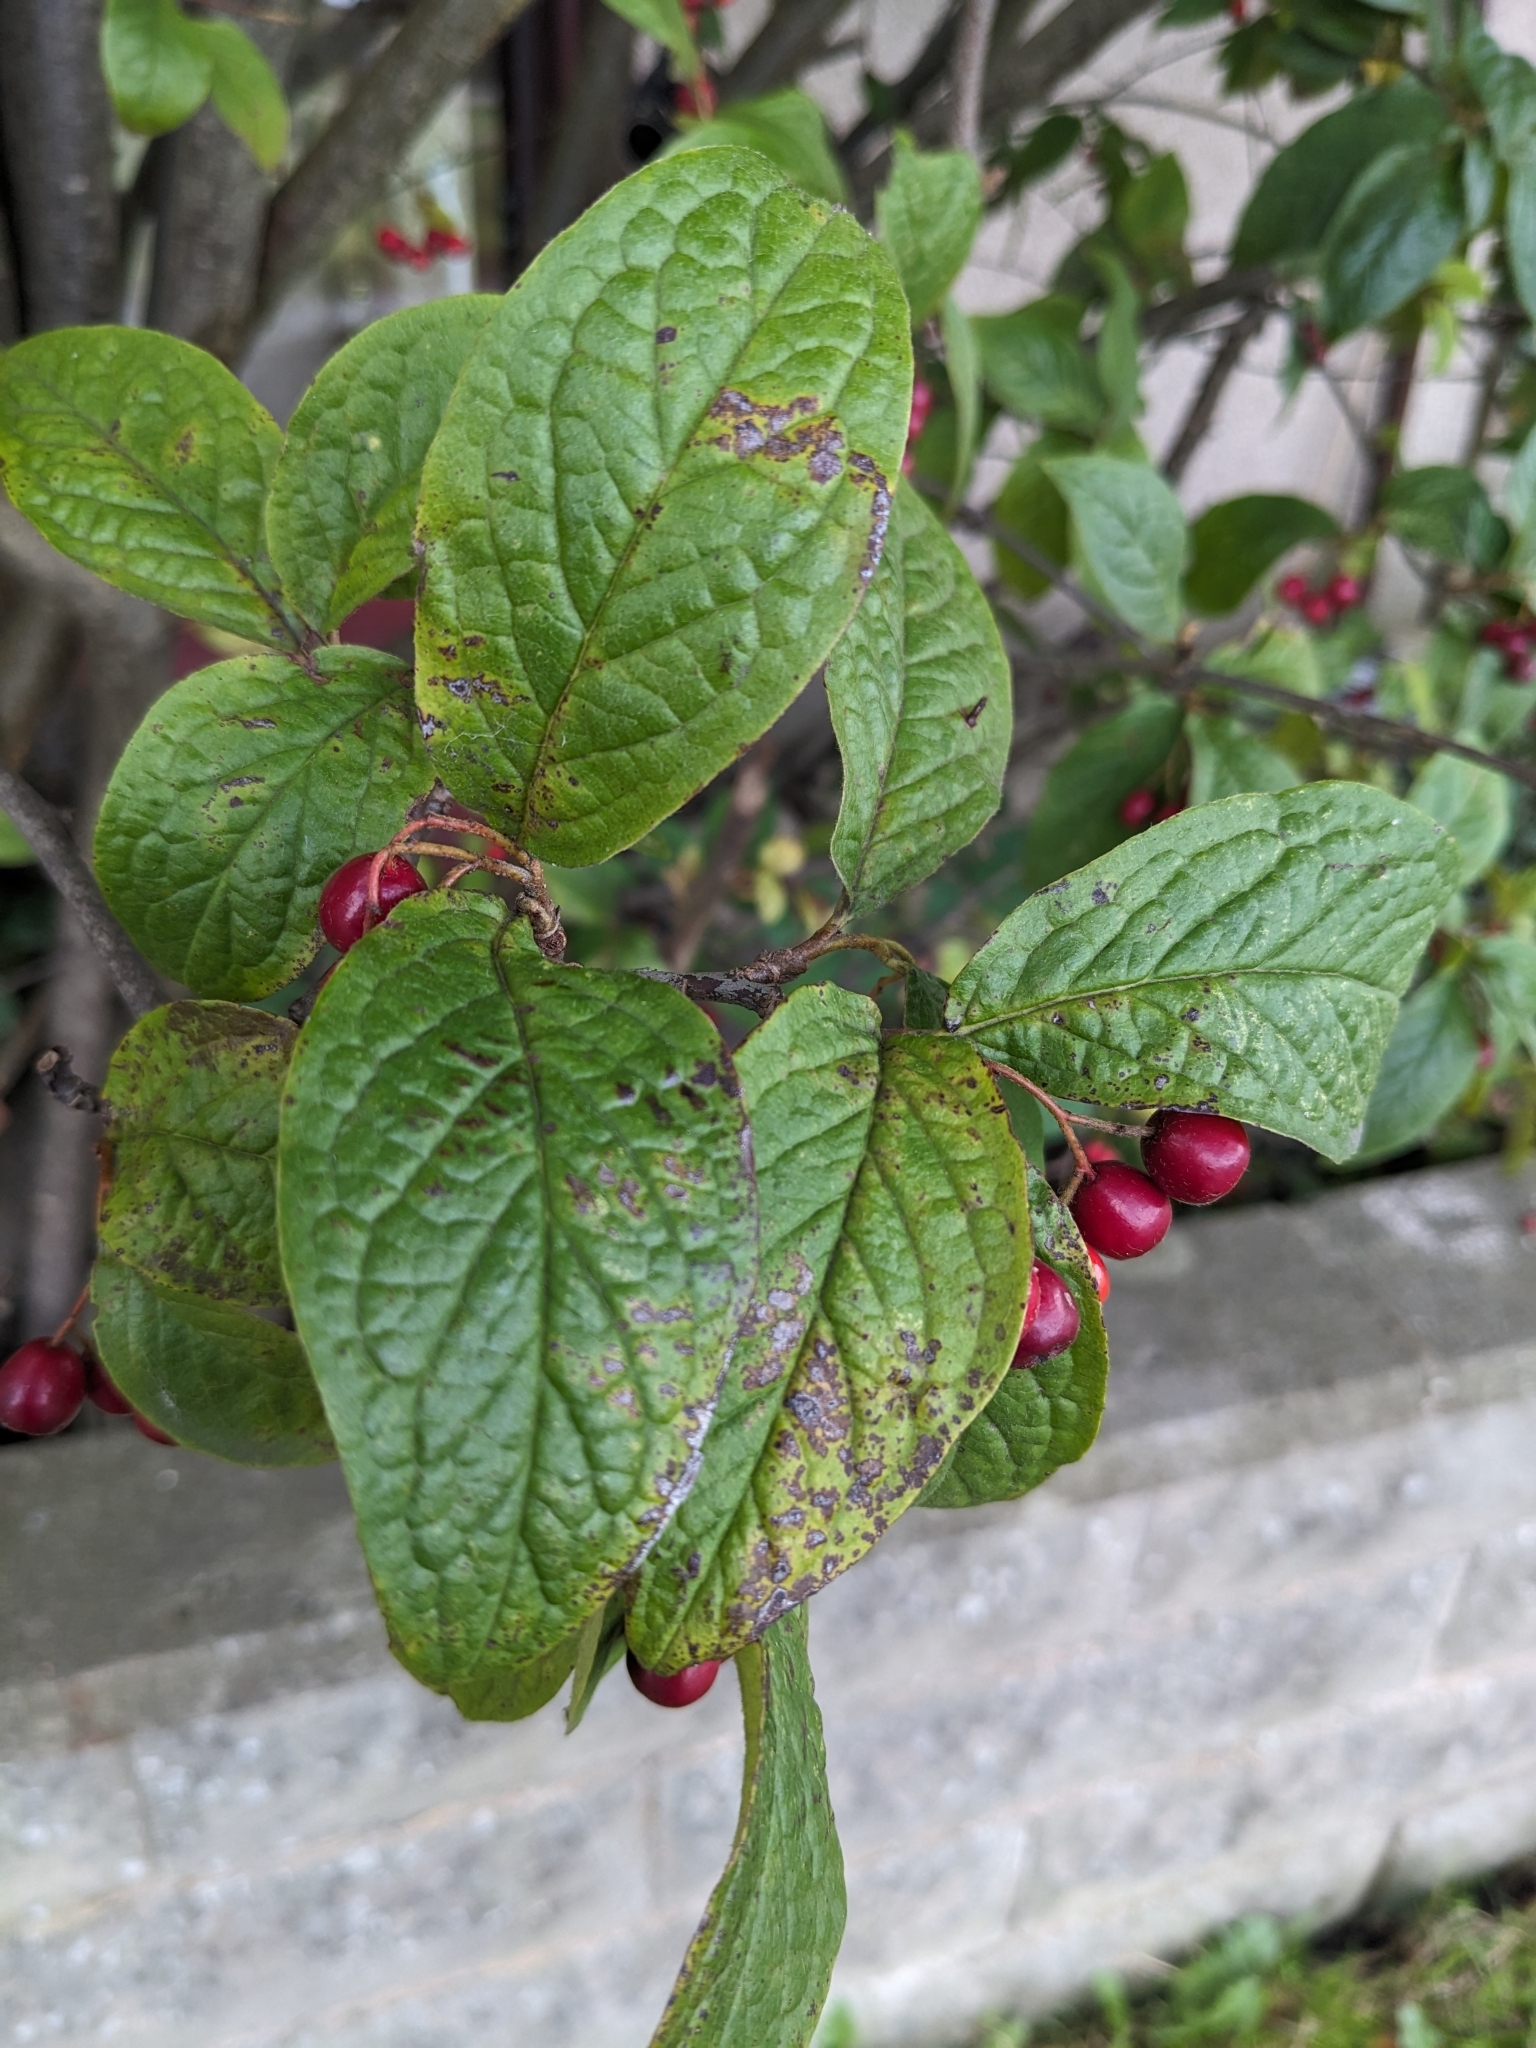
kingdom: Plantae
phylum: Tracheophyta
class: Magnoliopsida
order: Rosales
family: Rosaceae
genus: Cotoneaster
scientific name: Cotoneaster bullatus
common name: Hollyberry cotoneaster
